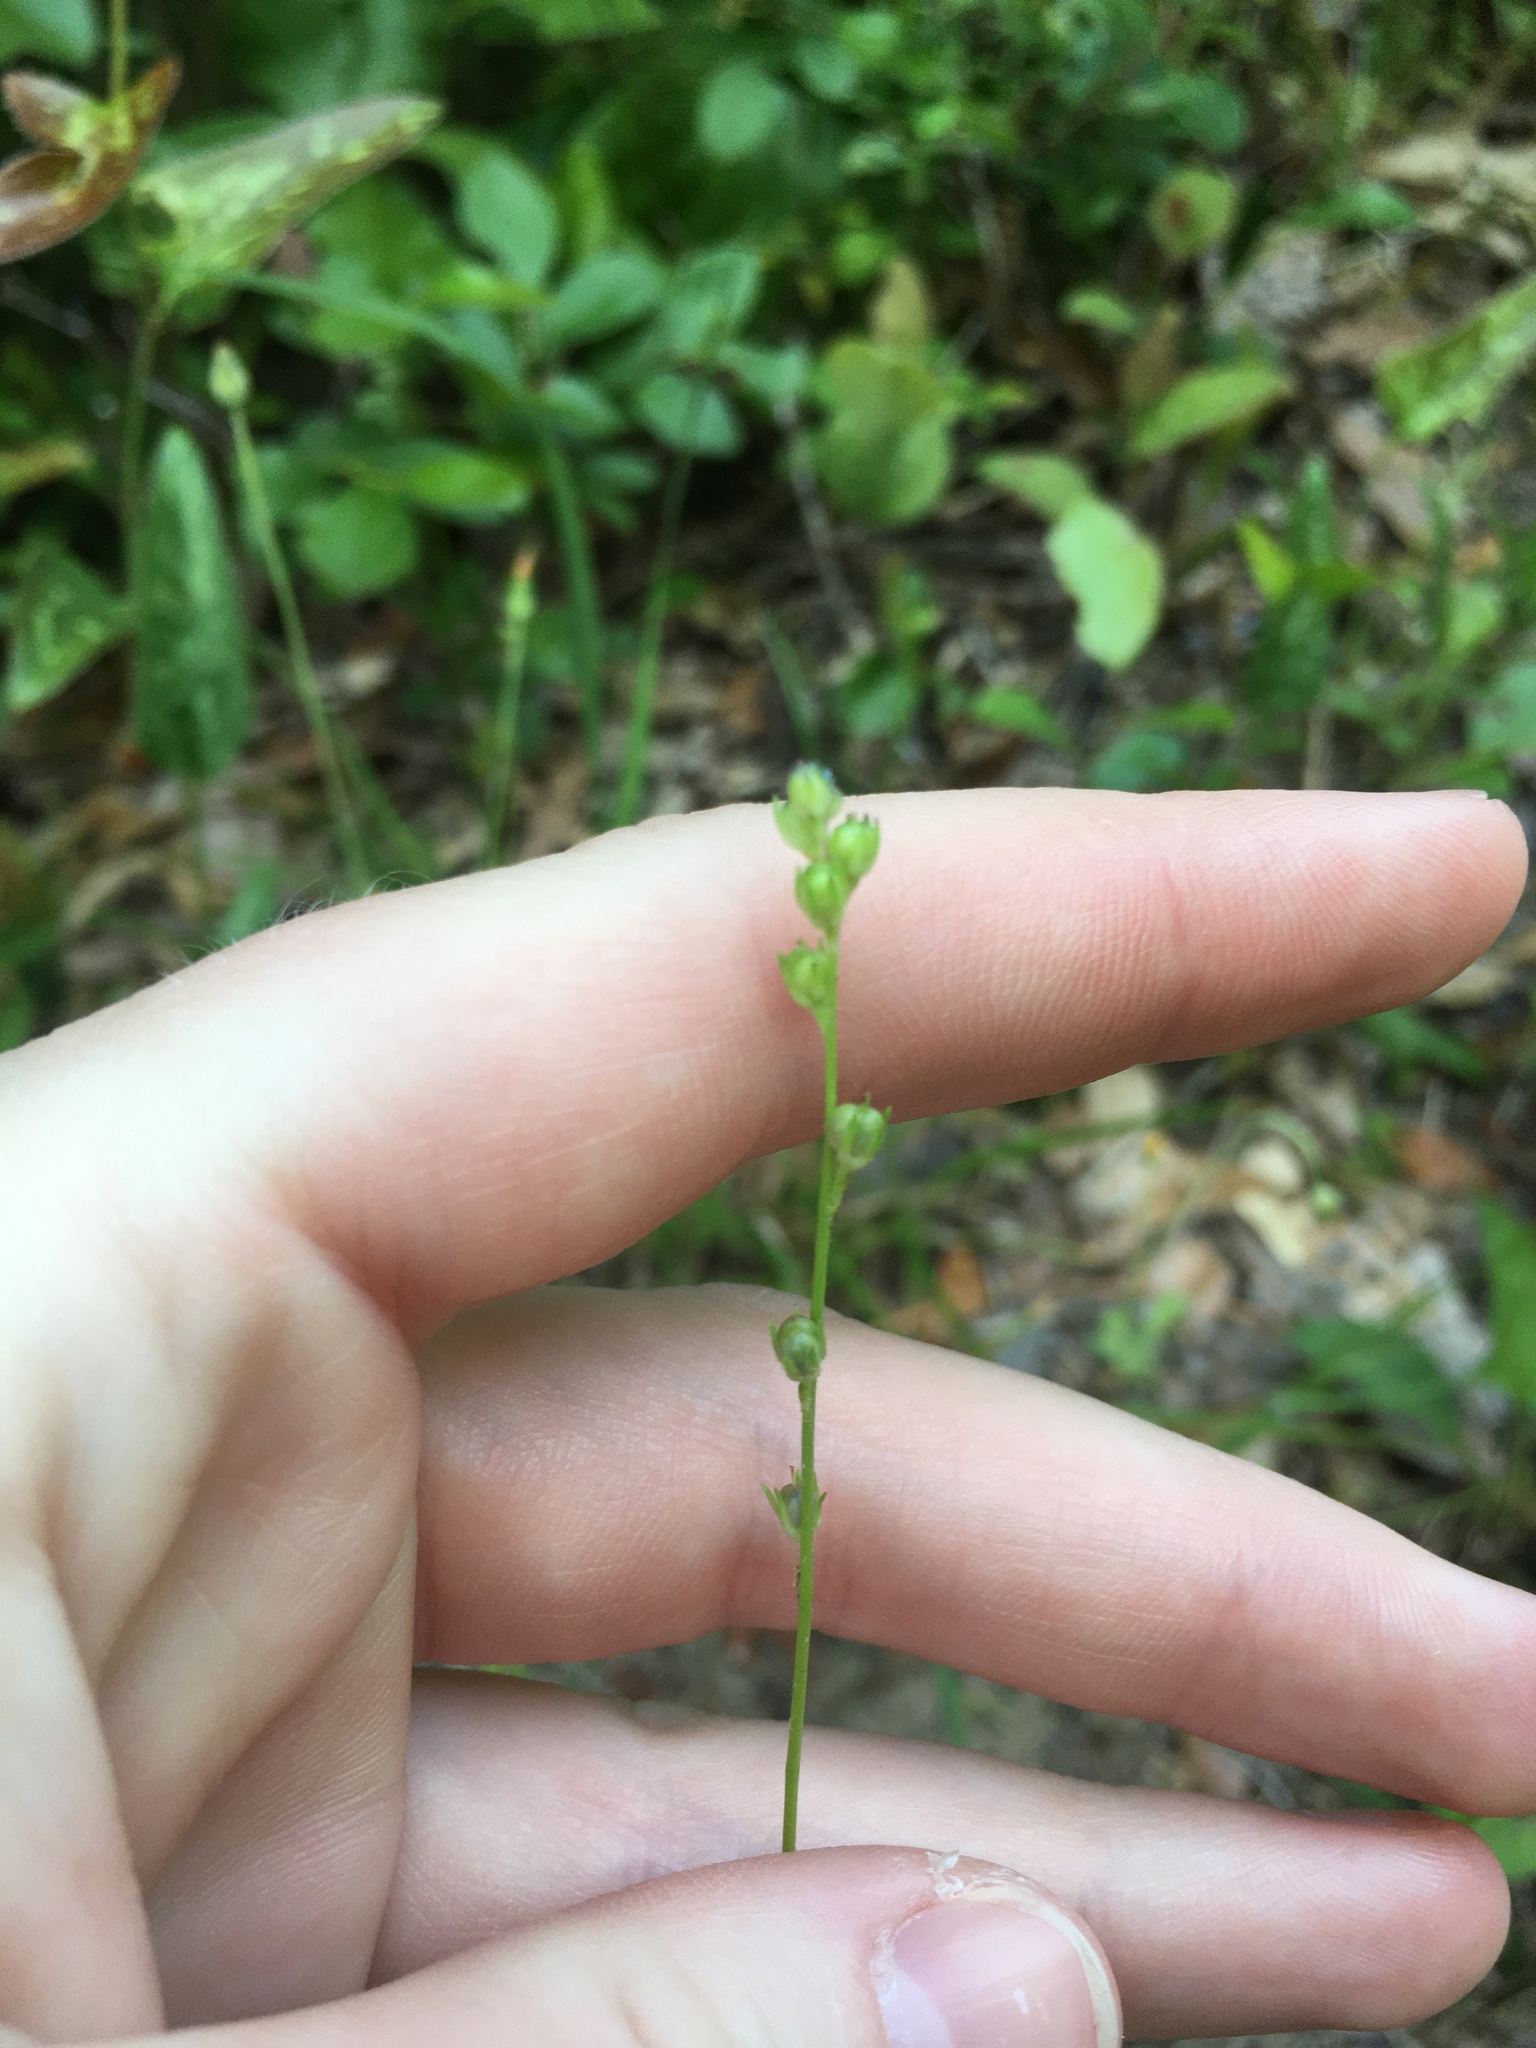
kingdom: Plantae
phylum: Tracheophyta
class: Magnoliopsida
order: Lamiales
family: Plantaginaceae
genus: Nuttallanthus
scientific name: Nuttallanthus canadensis
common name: Blue toadflax
